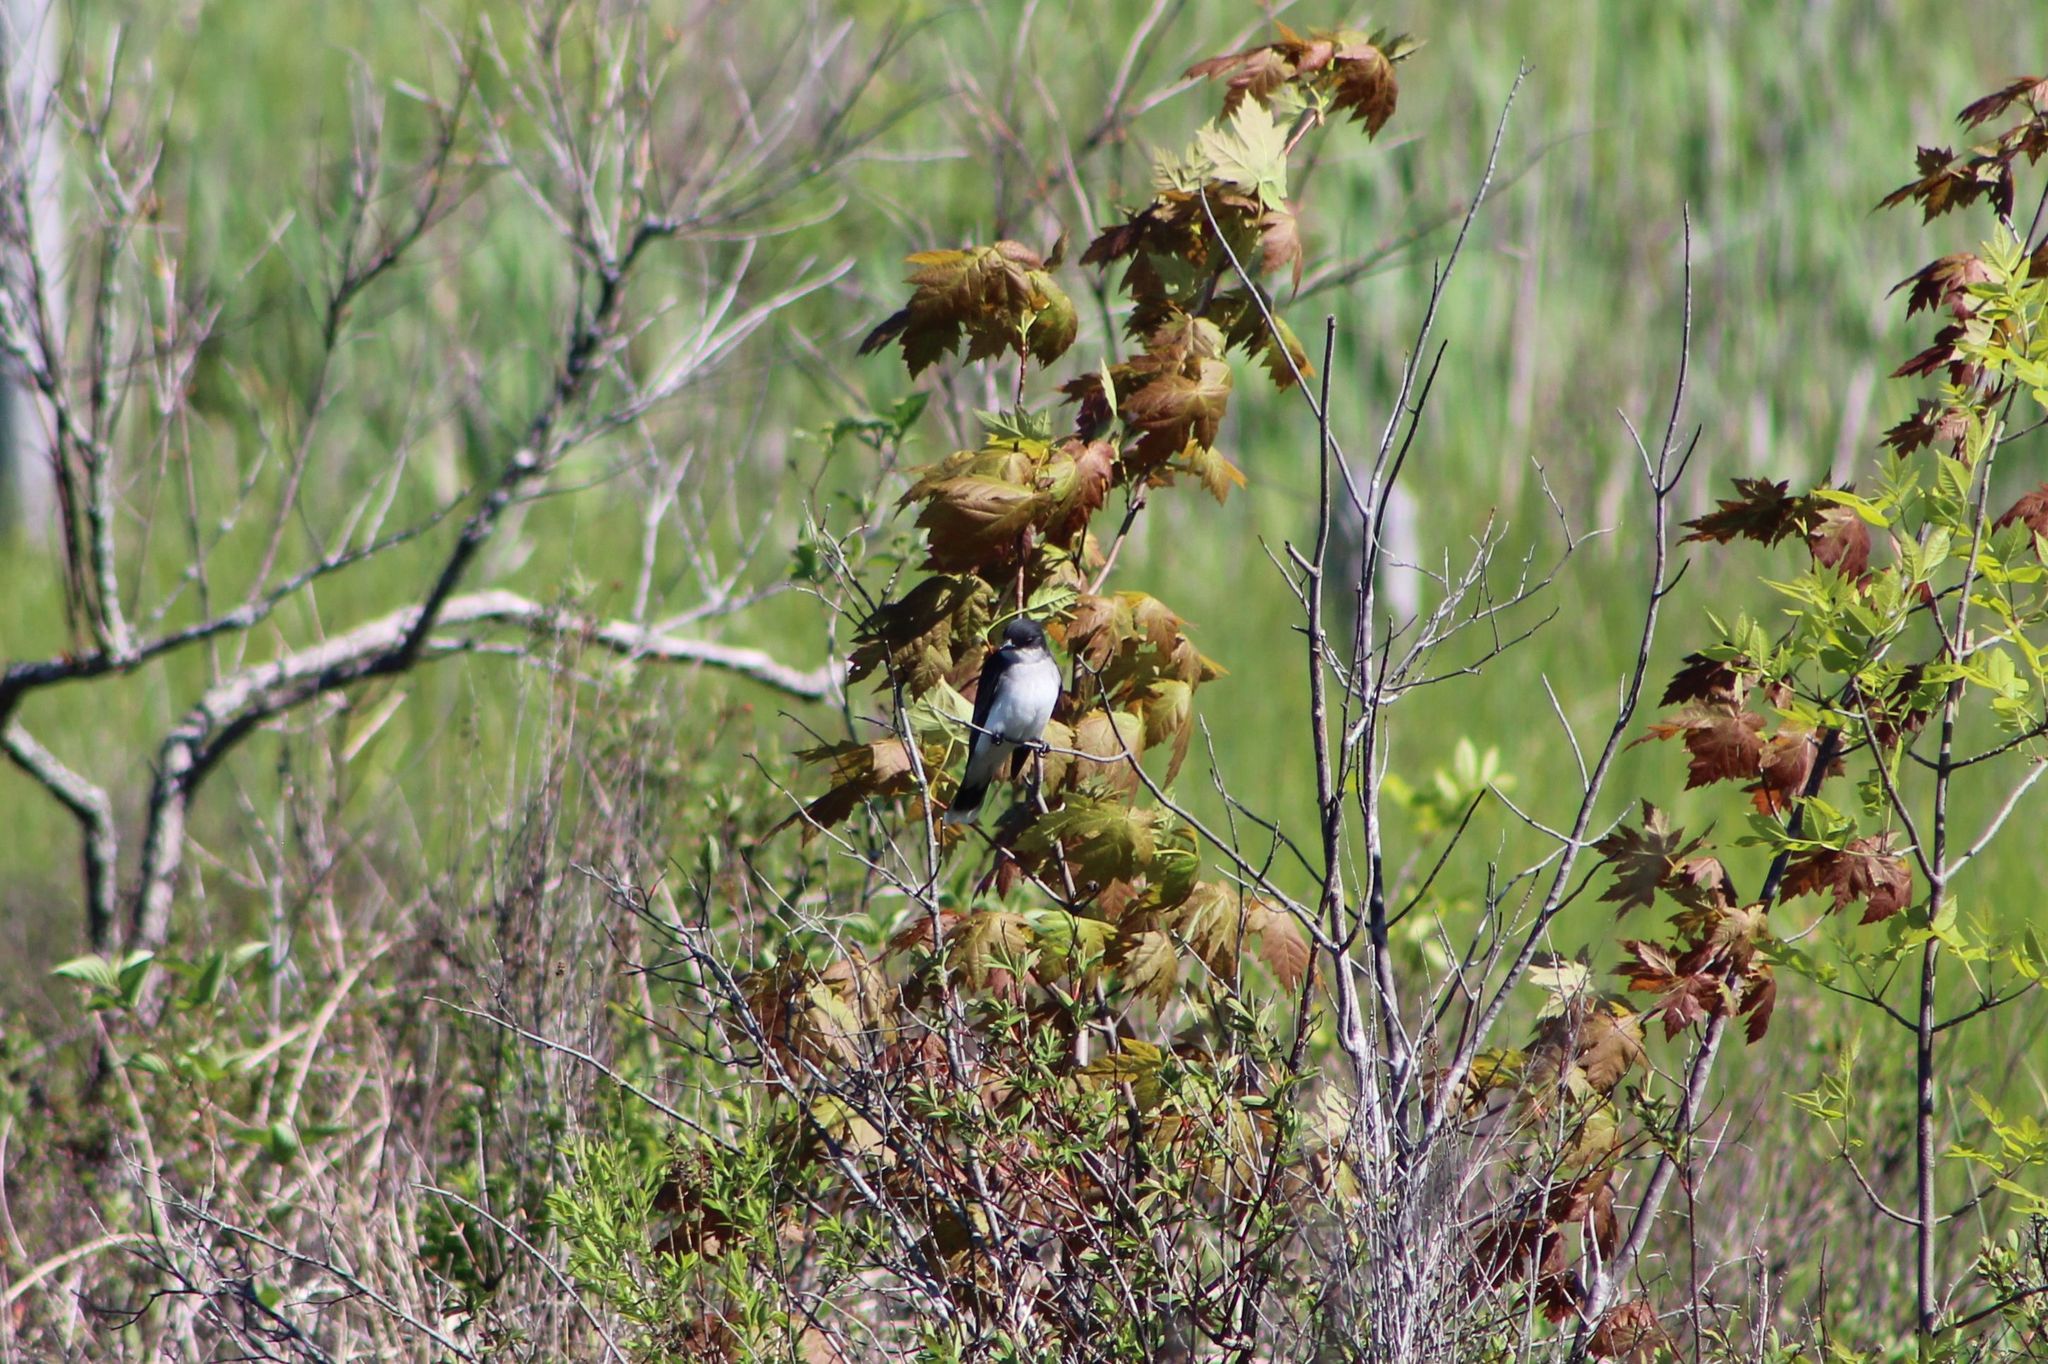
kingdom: Animalia
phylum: Chordata
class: Aves
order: Passeriformes
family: Tyrannidae
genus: Tyrannus
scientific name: Tyrannus tyrannus
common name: Eastern kingbird
